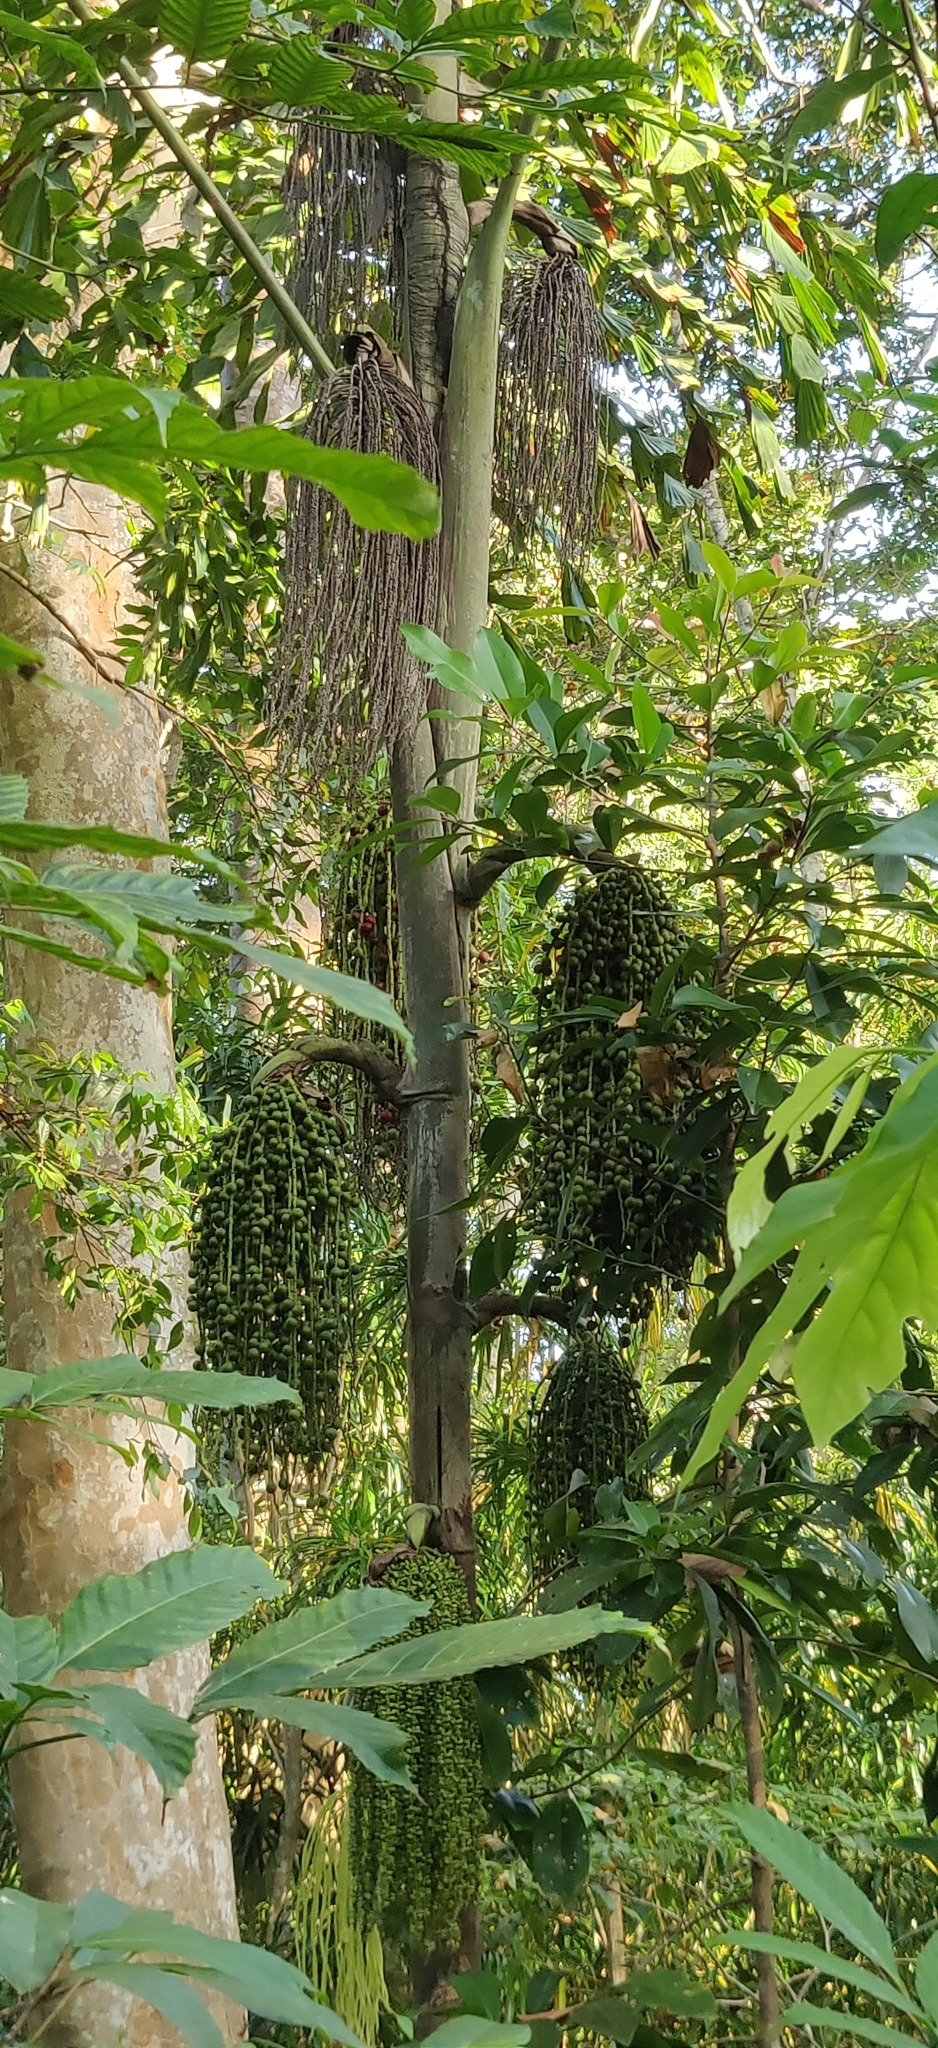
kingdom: Plantae
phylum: Tracheophyta
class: Liliopsida
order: Arecales
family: Arecaceae
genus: Caryota
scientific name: Caryota mitis
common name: Burmese fishtail palm
